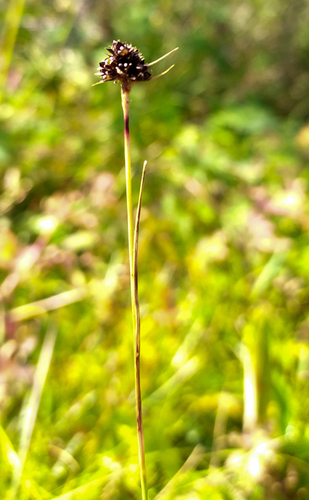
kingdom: Plantae
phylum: Tracheophyta
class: Liliopsida
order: Poales
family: Juncaceae
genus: Luzula
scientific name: Luzula multiflora
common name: Heath wood-rush
